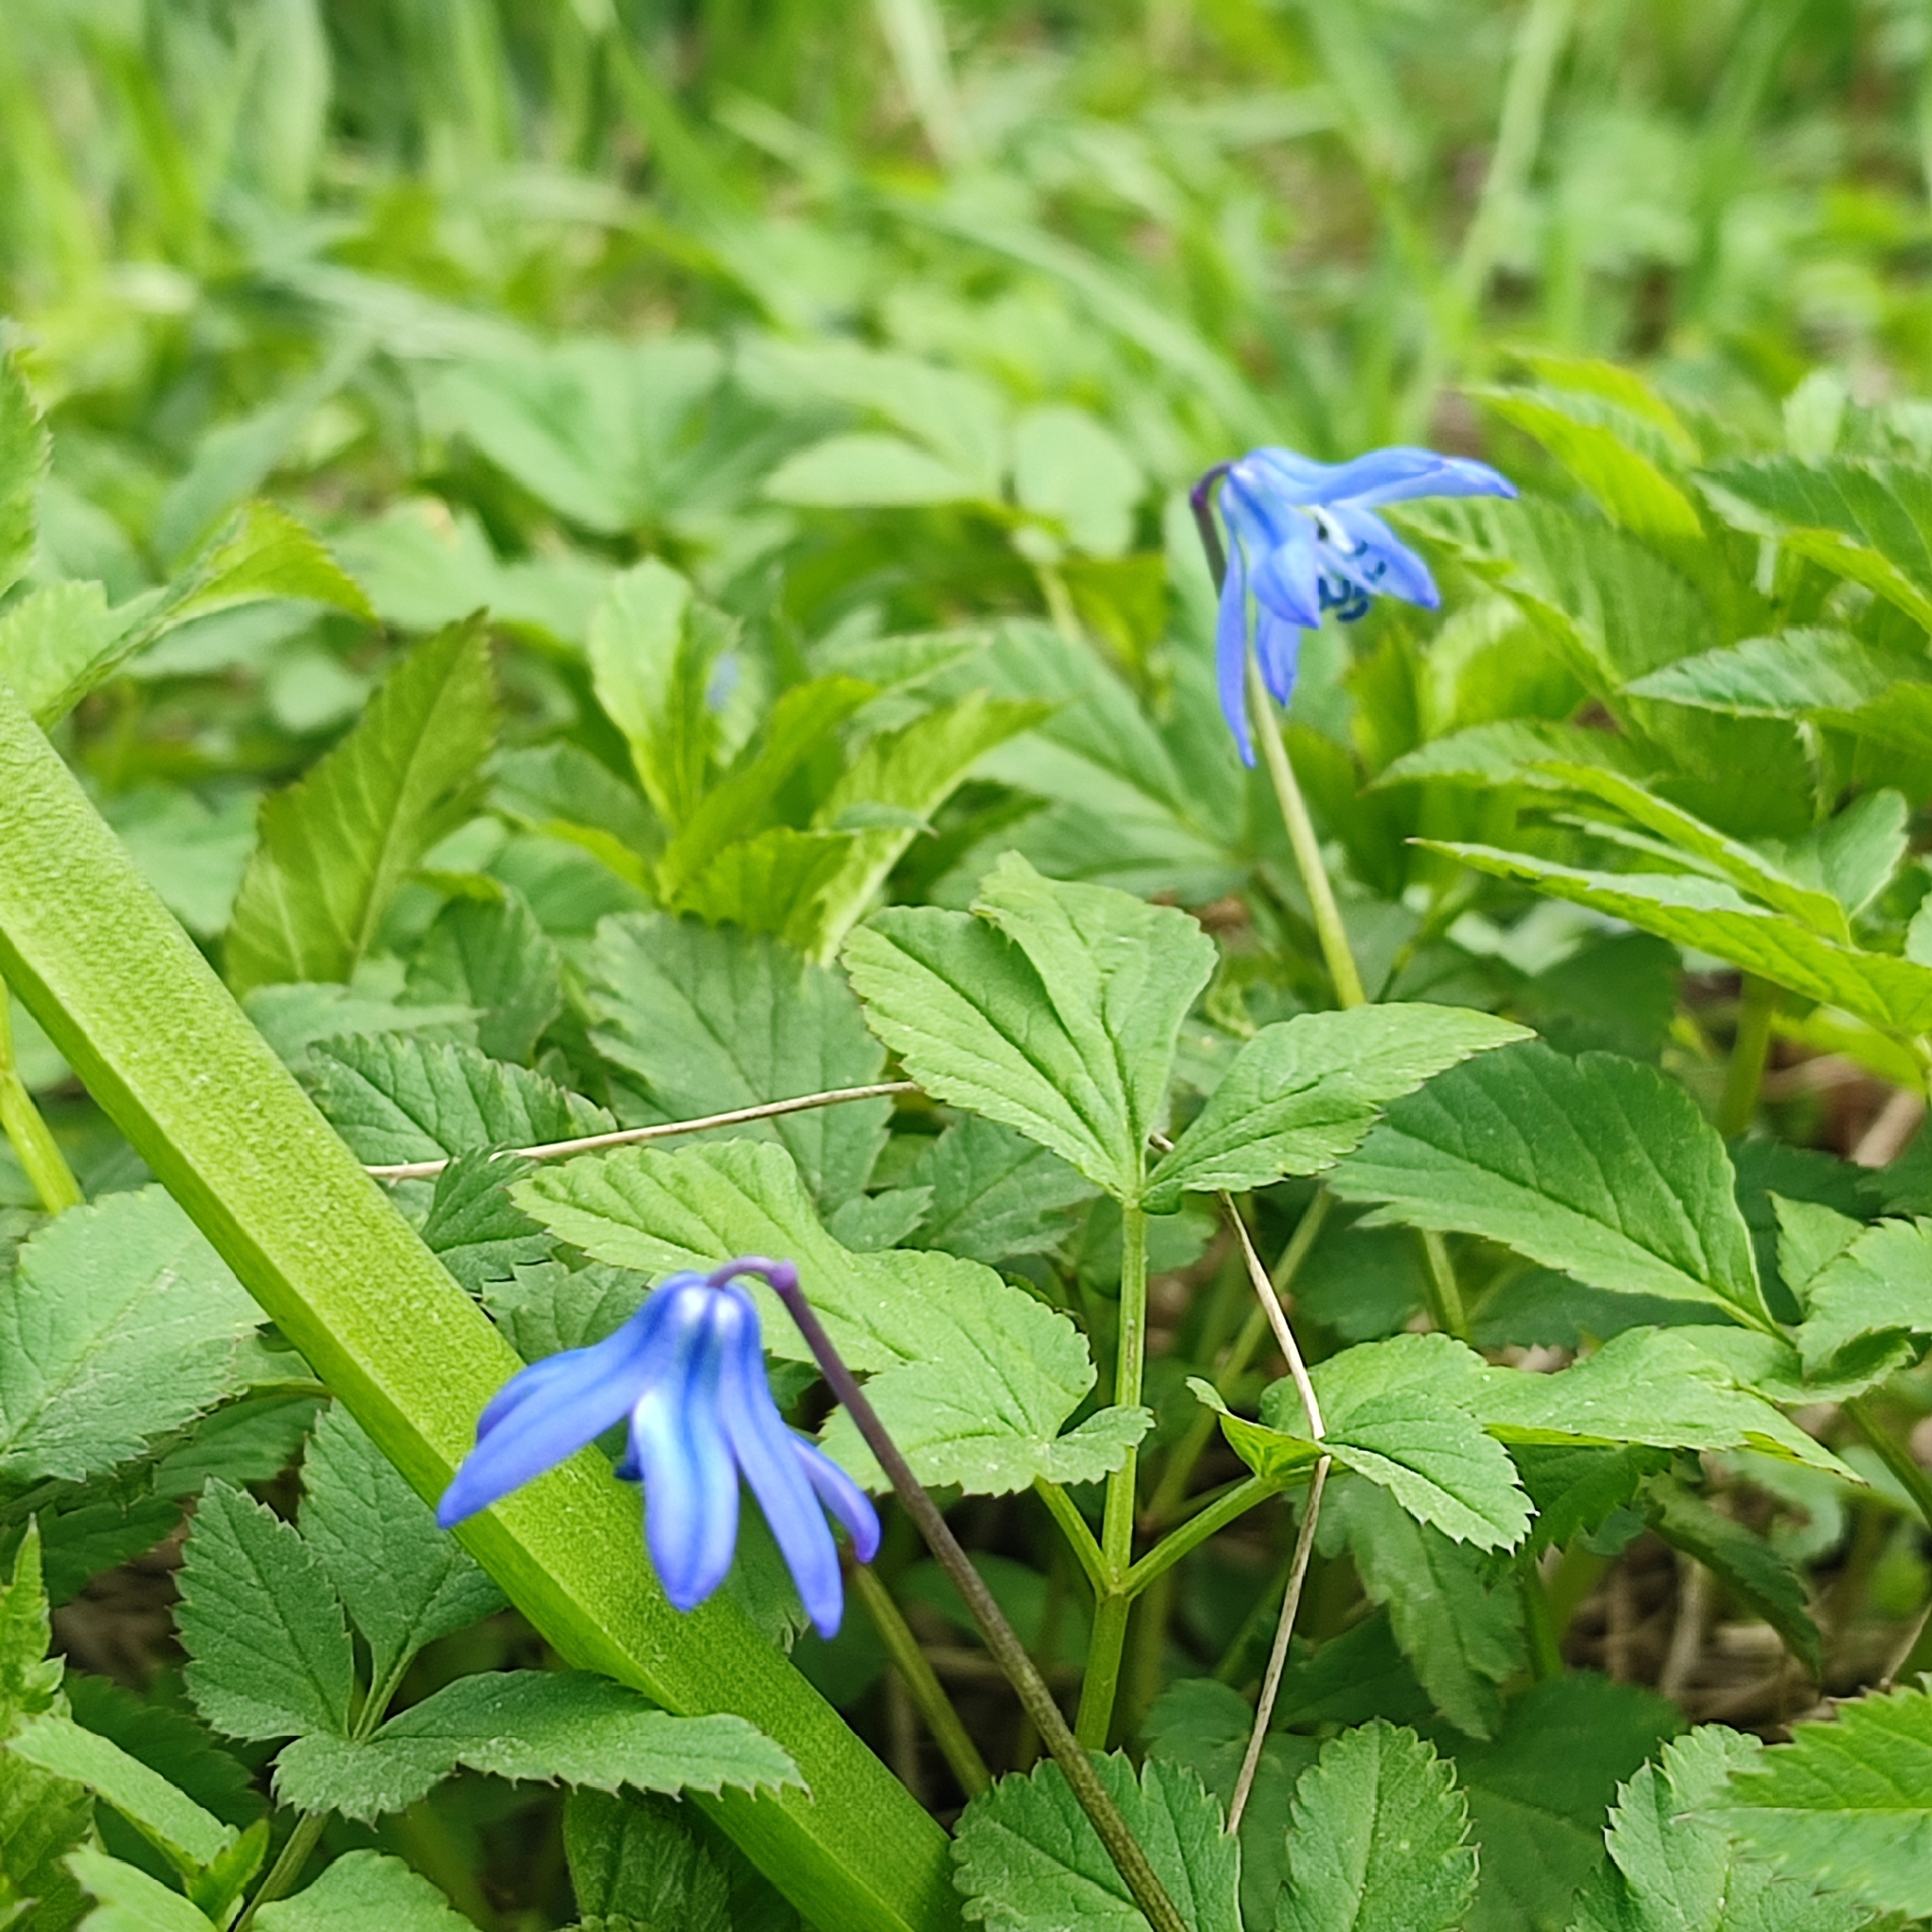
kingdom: Plantae
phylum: Tracheophyta
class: Liliopsida
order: Asparagales
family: Asparagaceae
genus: Scilla
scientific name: Scilla siberica
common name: Siberian squill
